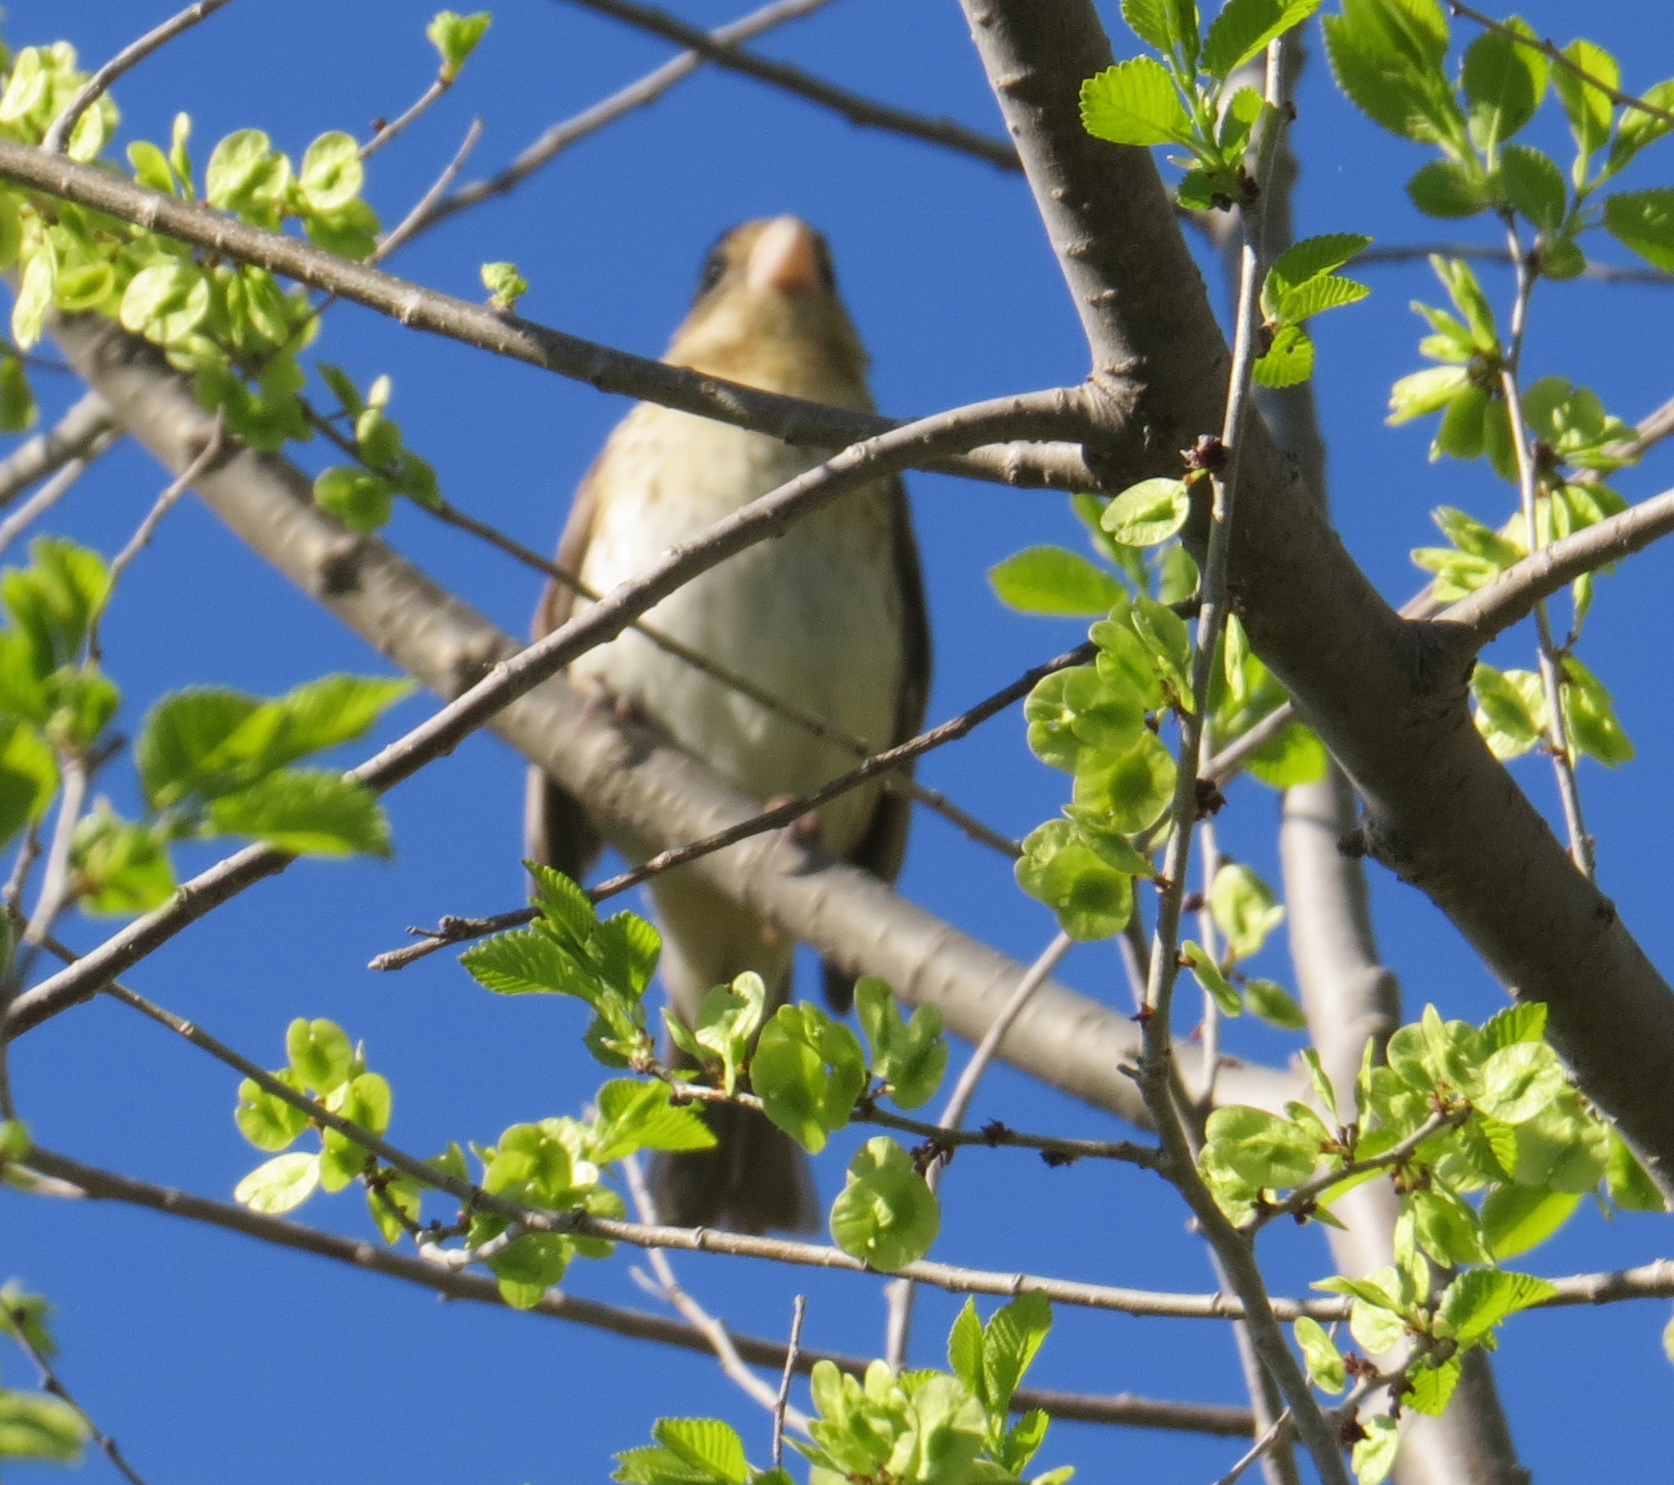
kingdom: Animalia
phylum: Chordata
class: Aves
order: Passeriformes
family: Cardinalidae
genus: Pheucticus
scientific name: Pheucticus ludovicianus
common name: Rose-breasted grosbeak
